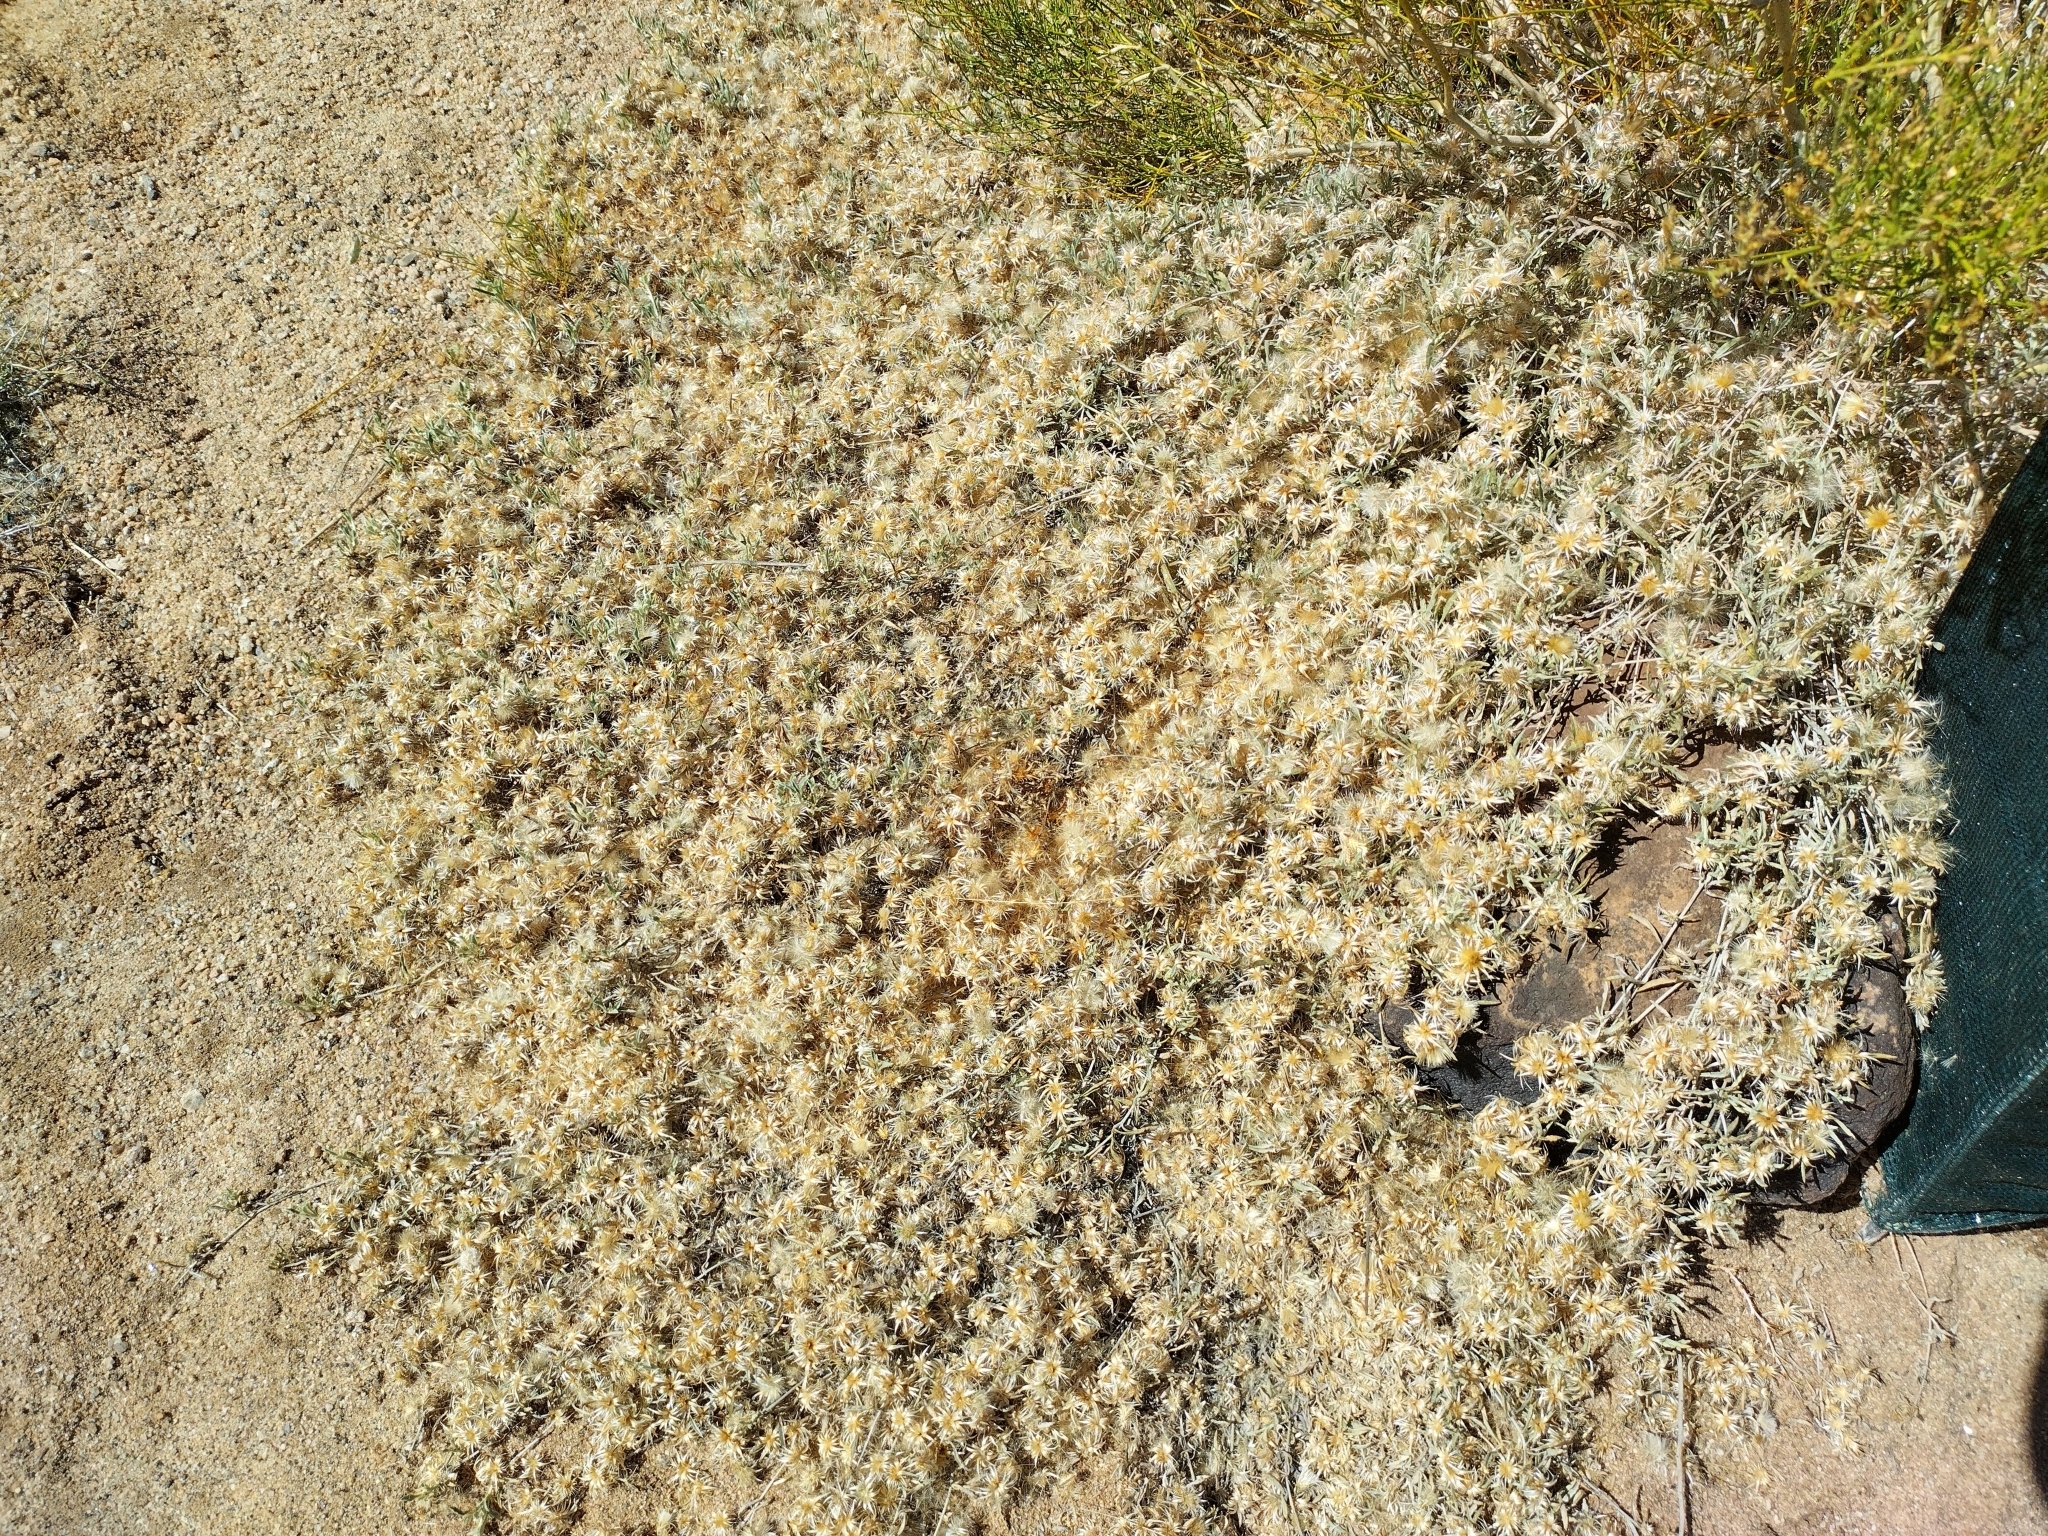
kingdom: Plantae
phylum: Tracheophyta
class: Magnoliopsida
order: Asterales
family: Asteraceae
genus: Dicoma
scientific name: Dicoma capensis
